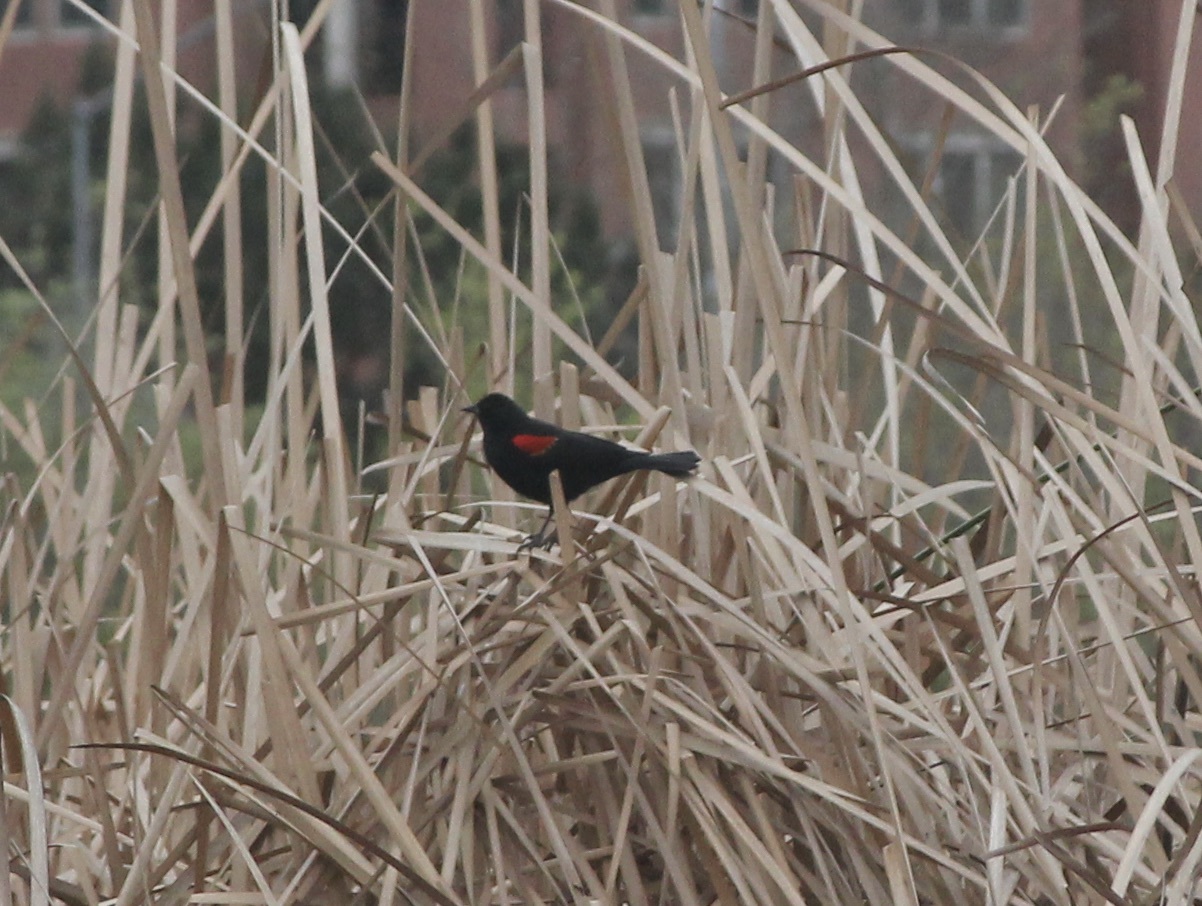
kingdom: Animalia
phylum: Chordata
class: Aves
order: Passeriformes
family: Icteridae
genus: Agelaius
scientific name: Agelaius phoeniceus
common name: Red-winged blackbird
